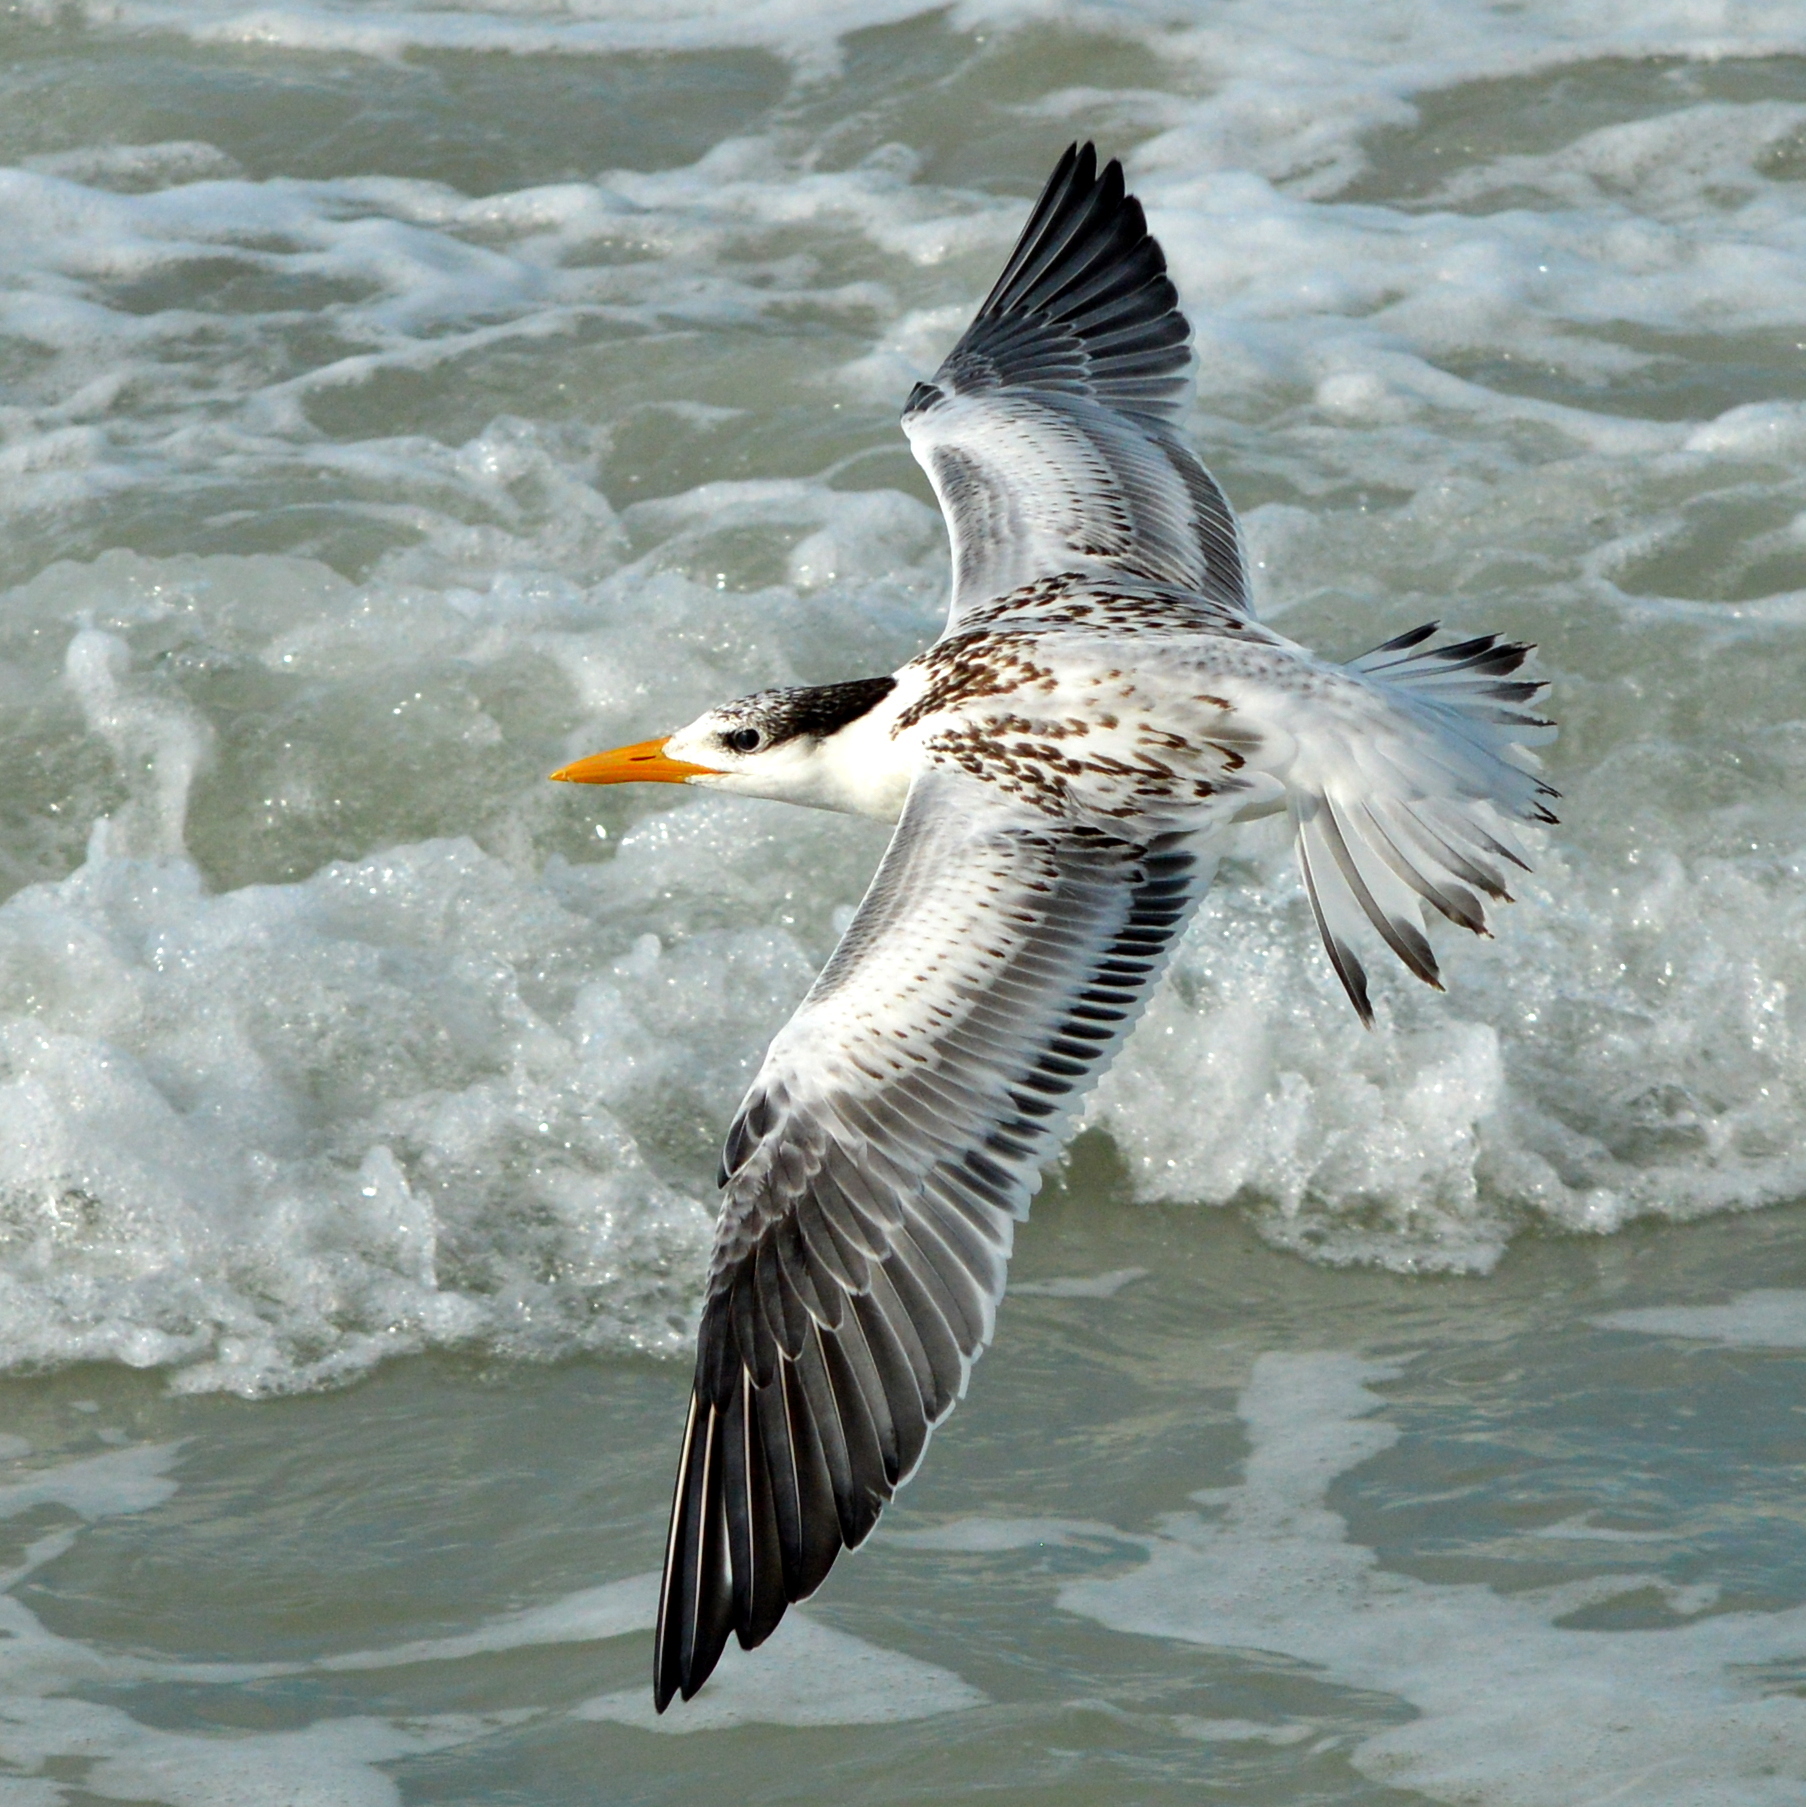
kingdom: Animalia
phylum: Chordata
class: Aves
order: Charadriiformes
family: Laridae
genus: Thalasseus
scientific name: Thalasseus maximus
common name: Royal tern
